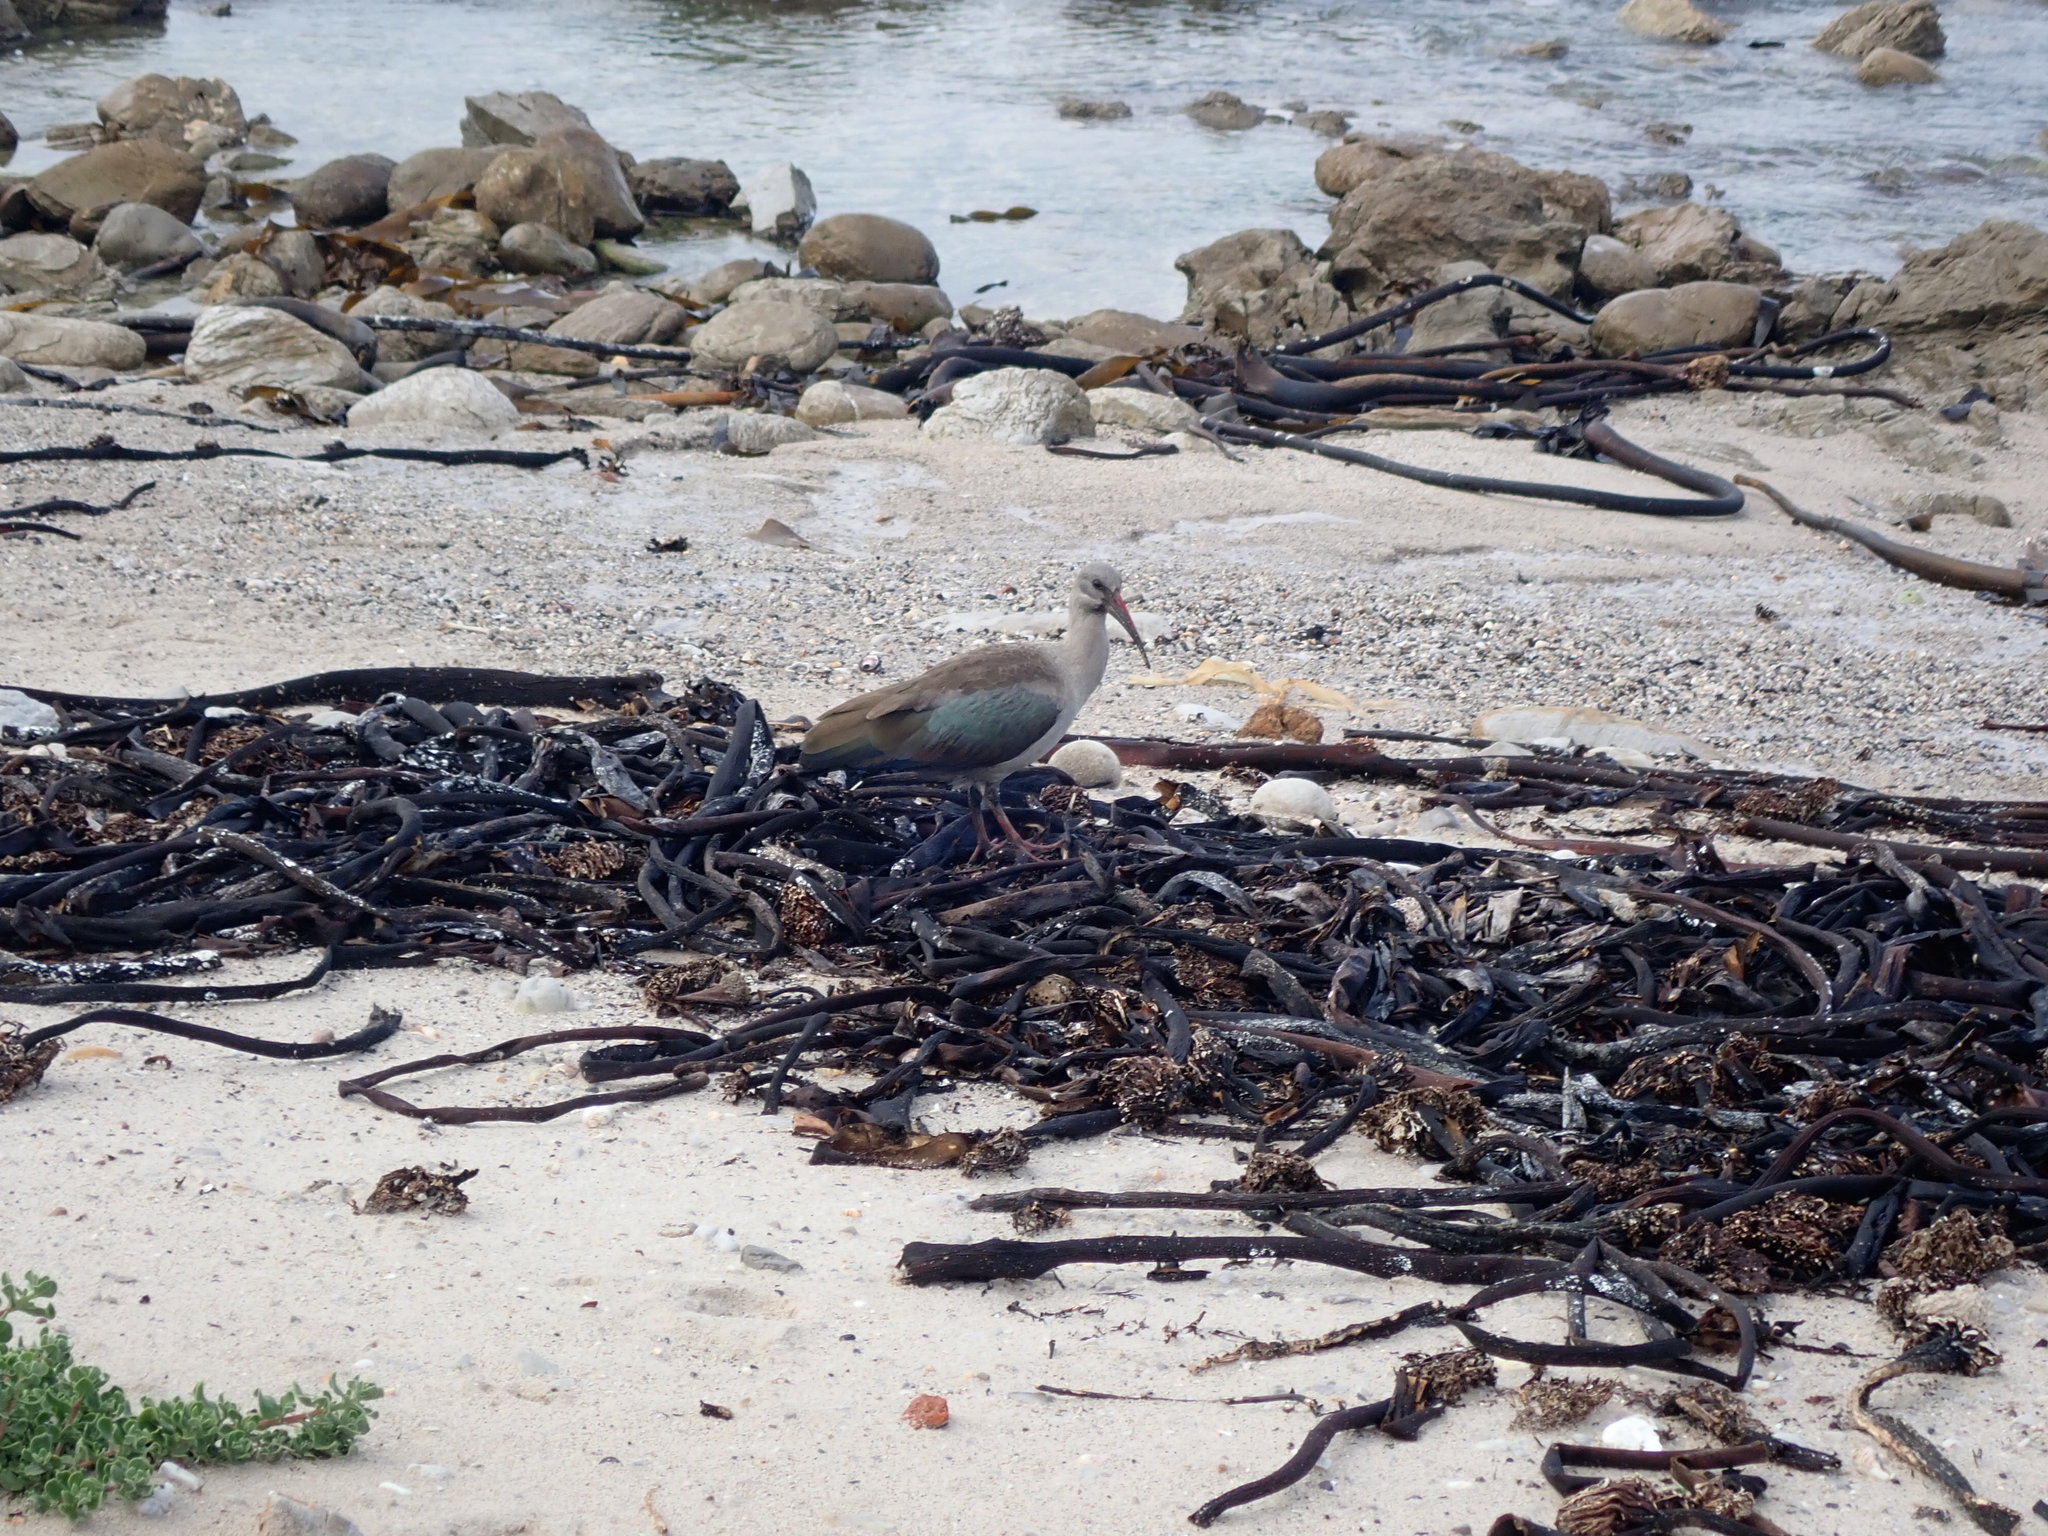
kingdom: Animalia
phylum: Chordata
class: Aves
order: Pelecaniformes
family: Threskiornithidae
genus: Bostrychia
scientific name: Bostrychia hagedash
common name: Hadada ibis
